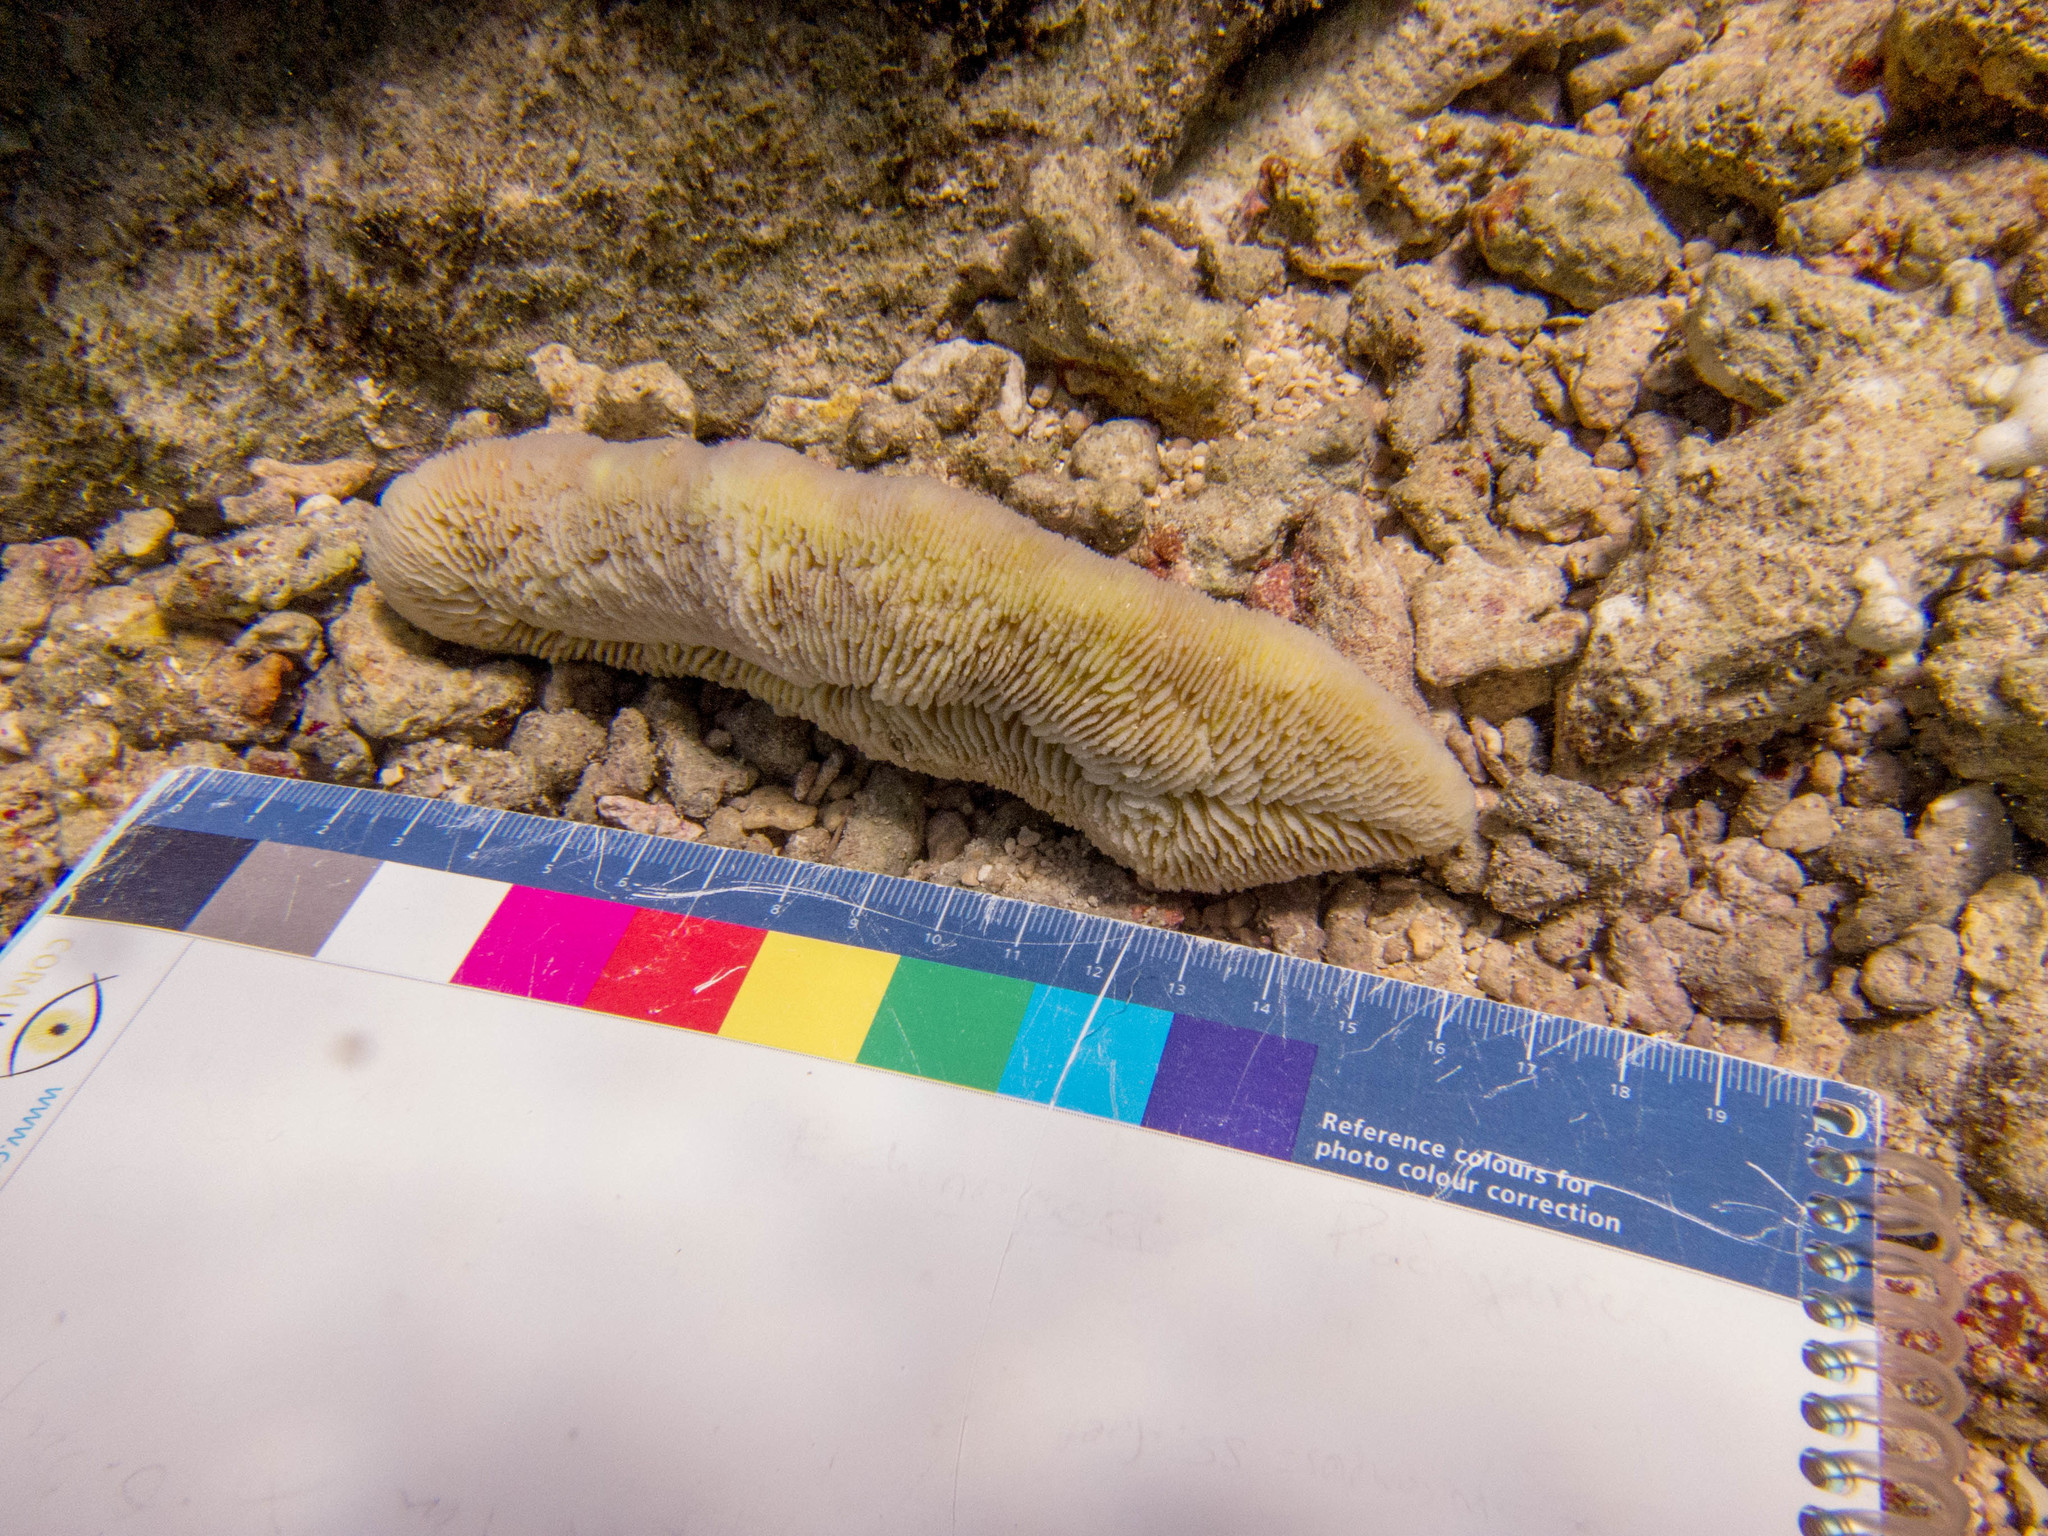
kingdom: Animalia
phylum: Cnidaria
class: Anthozoa
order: Scleractinia
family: Fungiidae
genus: Herpolitha
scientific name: Herpolitha limax
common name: Striate boomerang coral
